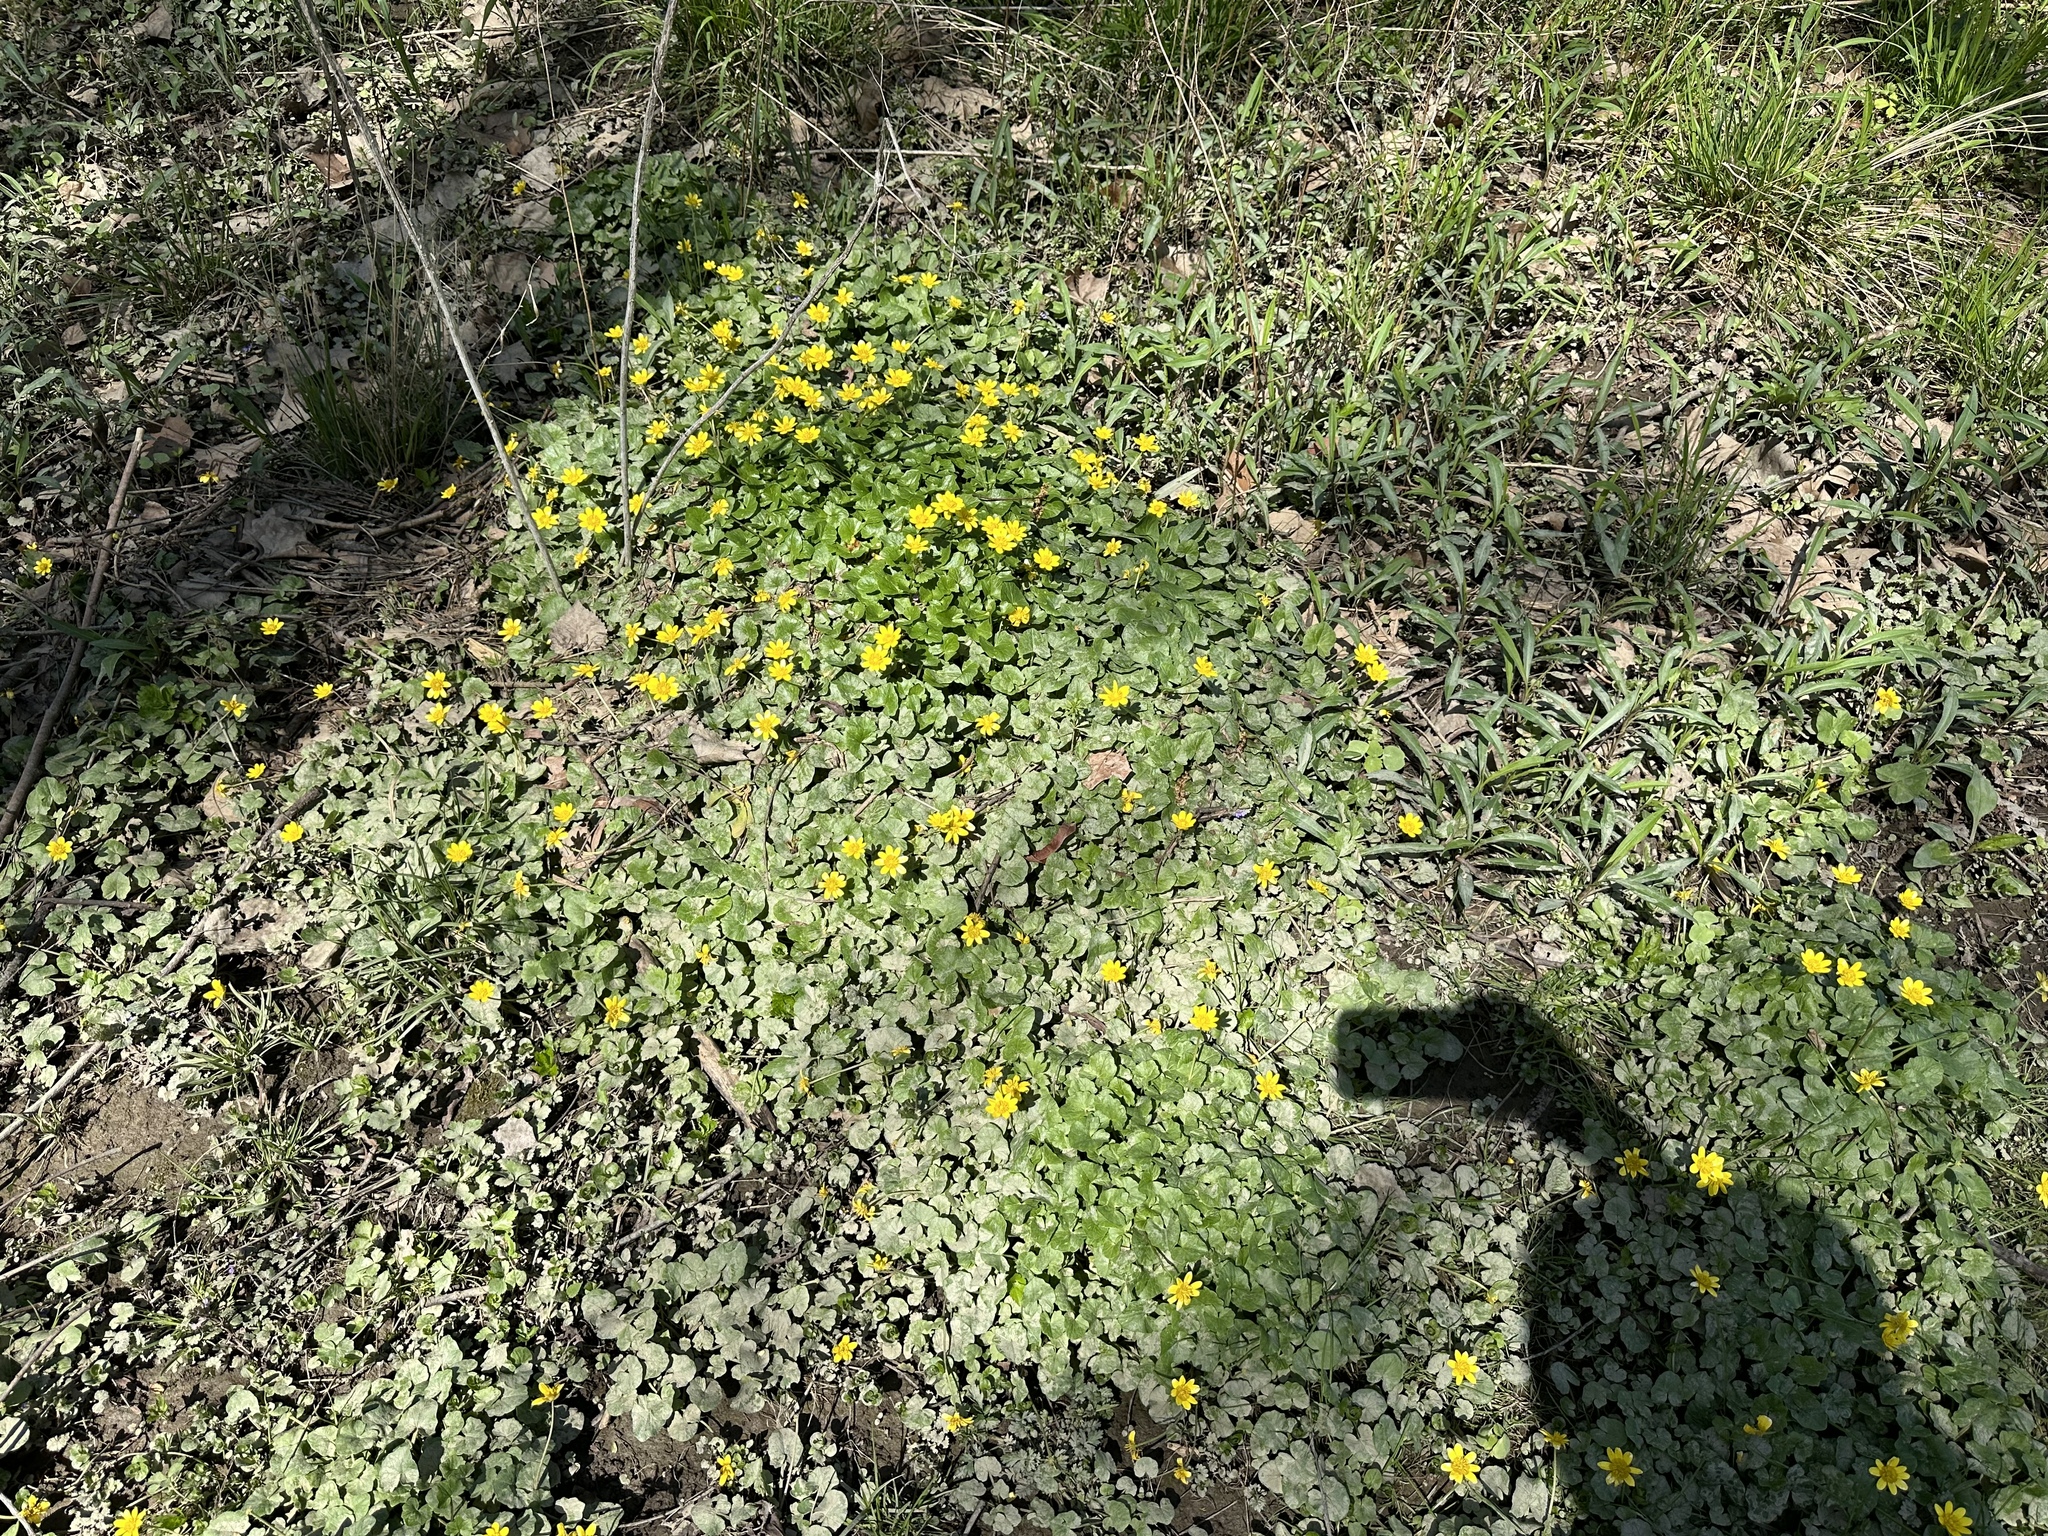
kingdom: Plantae
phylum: Tracheophyta
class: Magnoliopsida
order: Ranunculales
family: Ranunculaceae
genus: Ficaria
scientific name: Ficaria verna
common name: Lesser celandine
